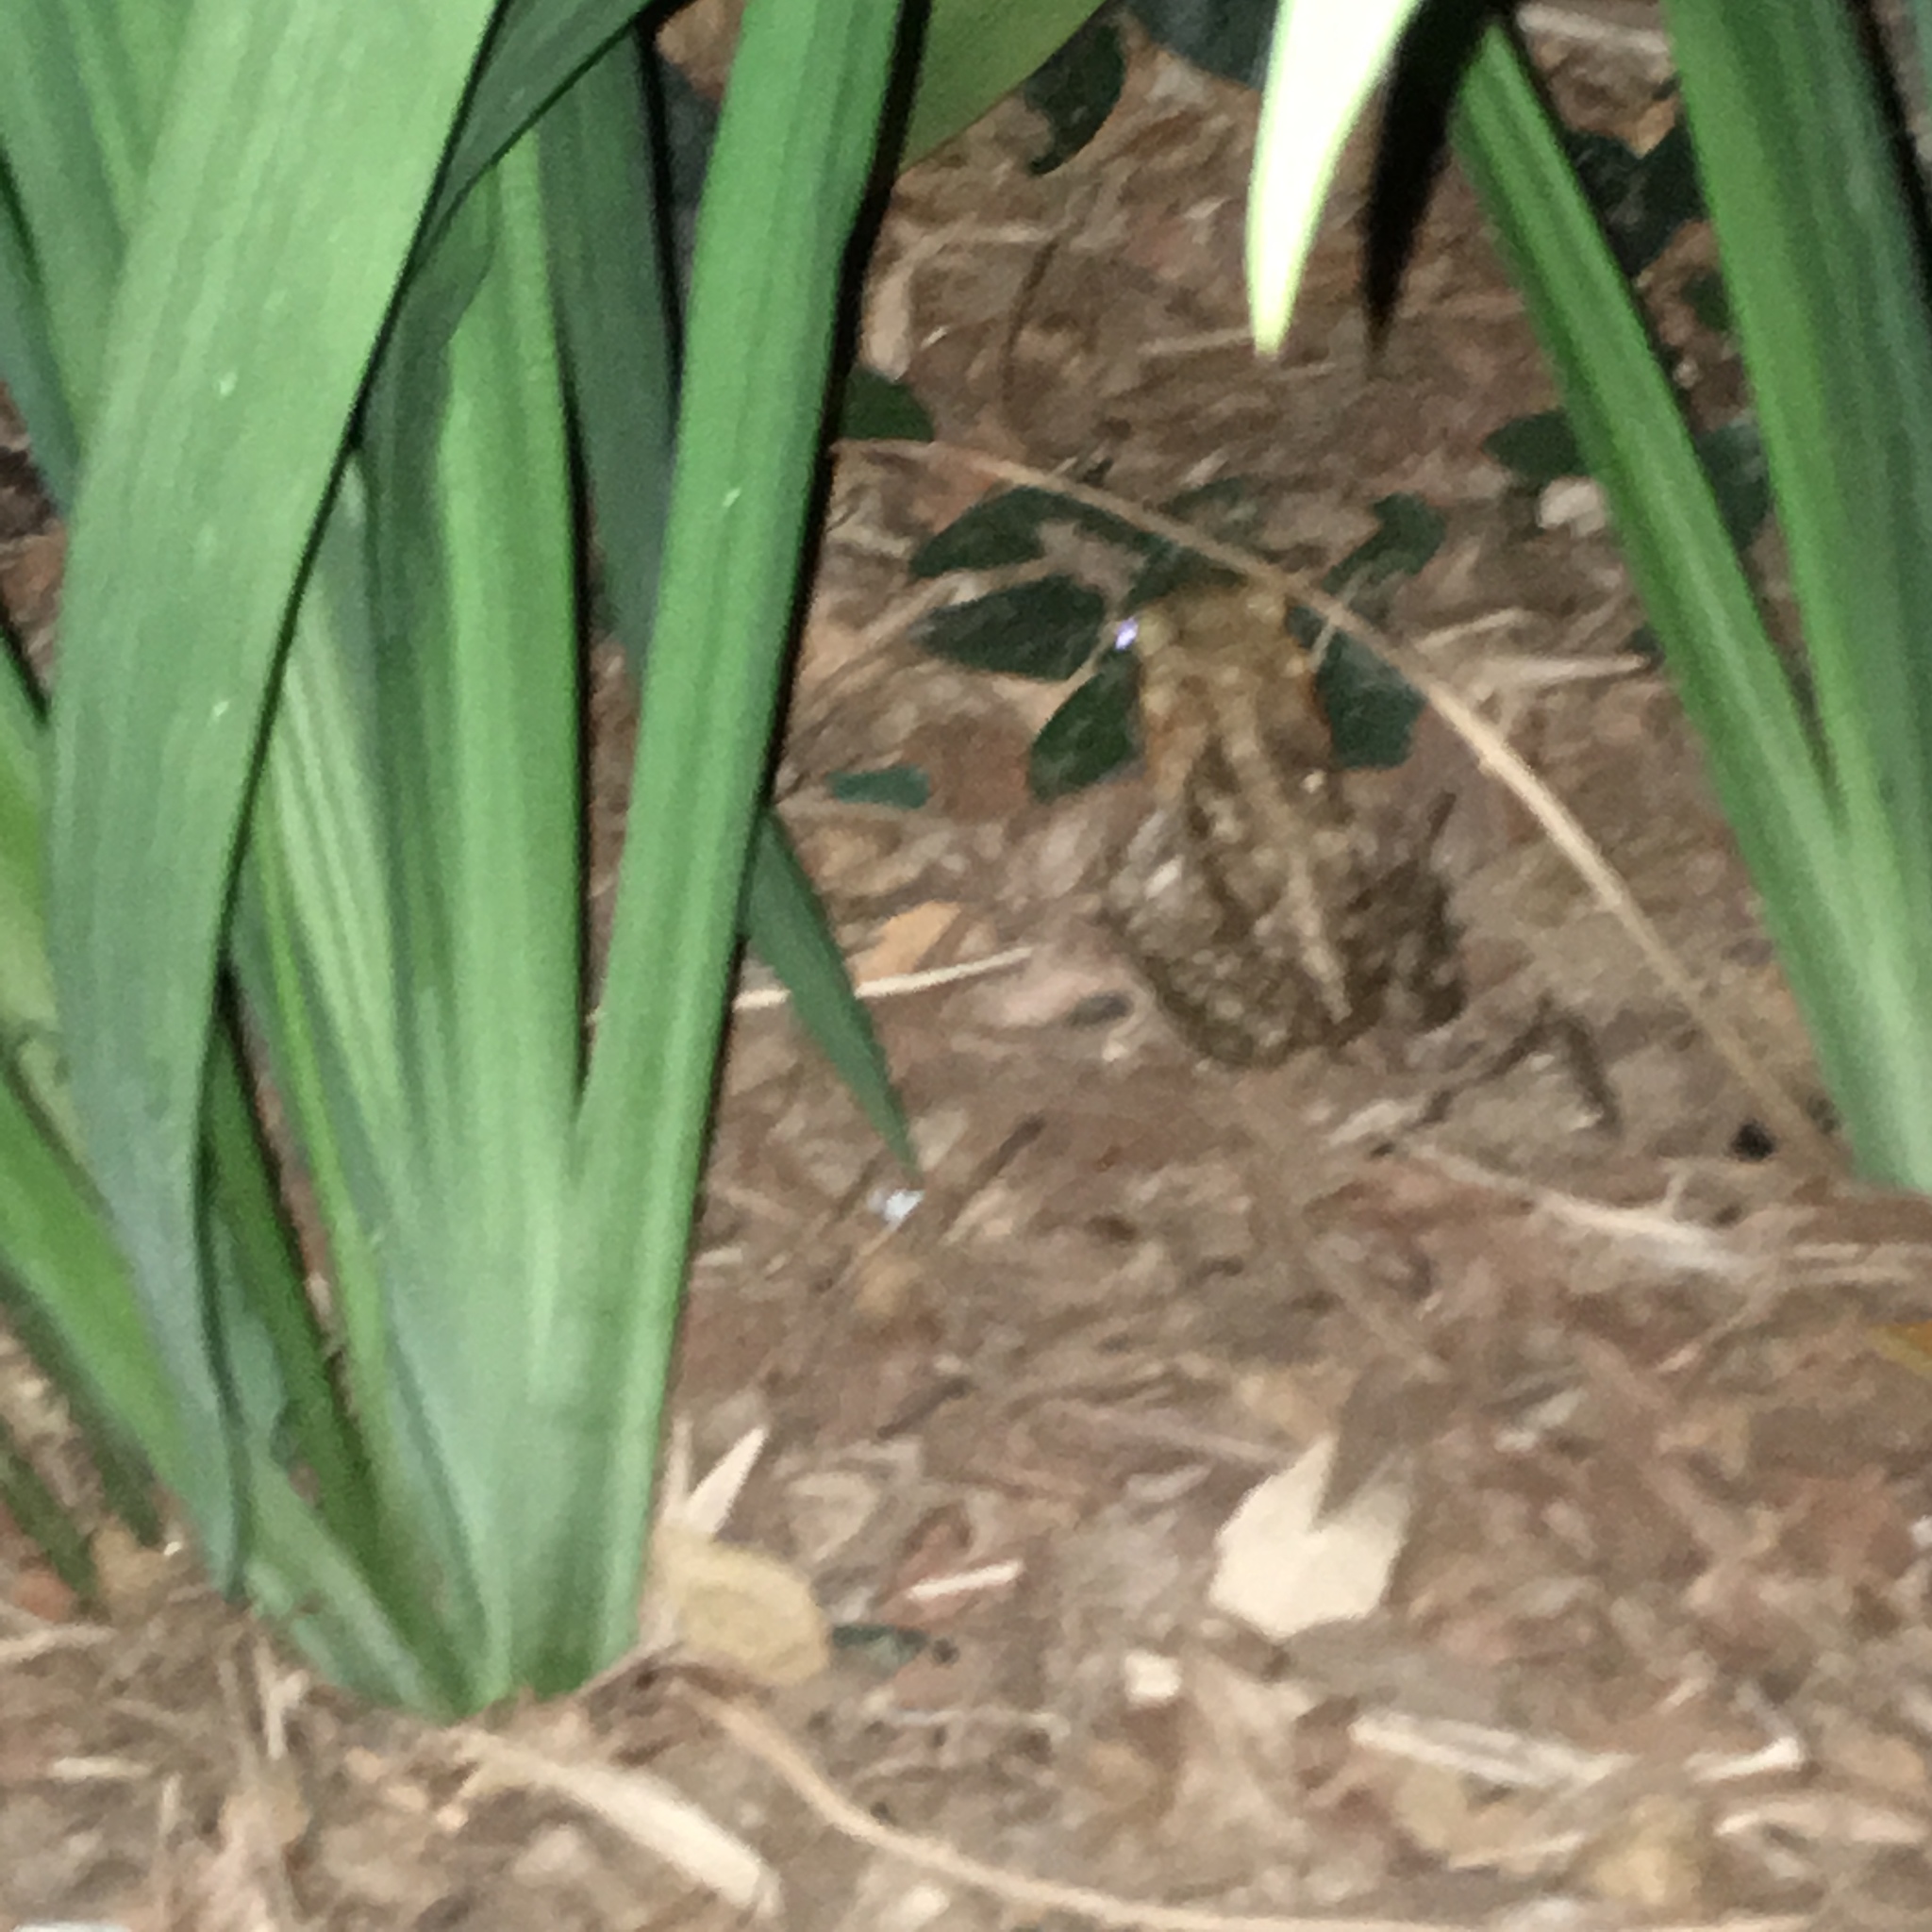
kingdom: Animalia
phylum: Chordata
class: Amphibia
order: Anura
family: Bufonidae
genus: Rhinella
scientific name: Rhinella marina
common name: Cane toad
